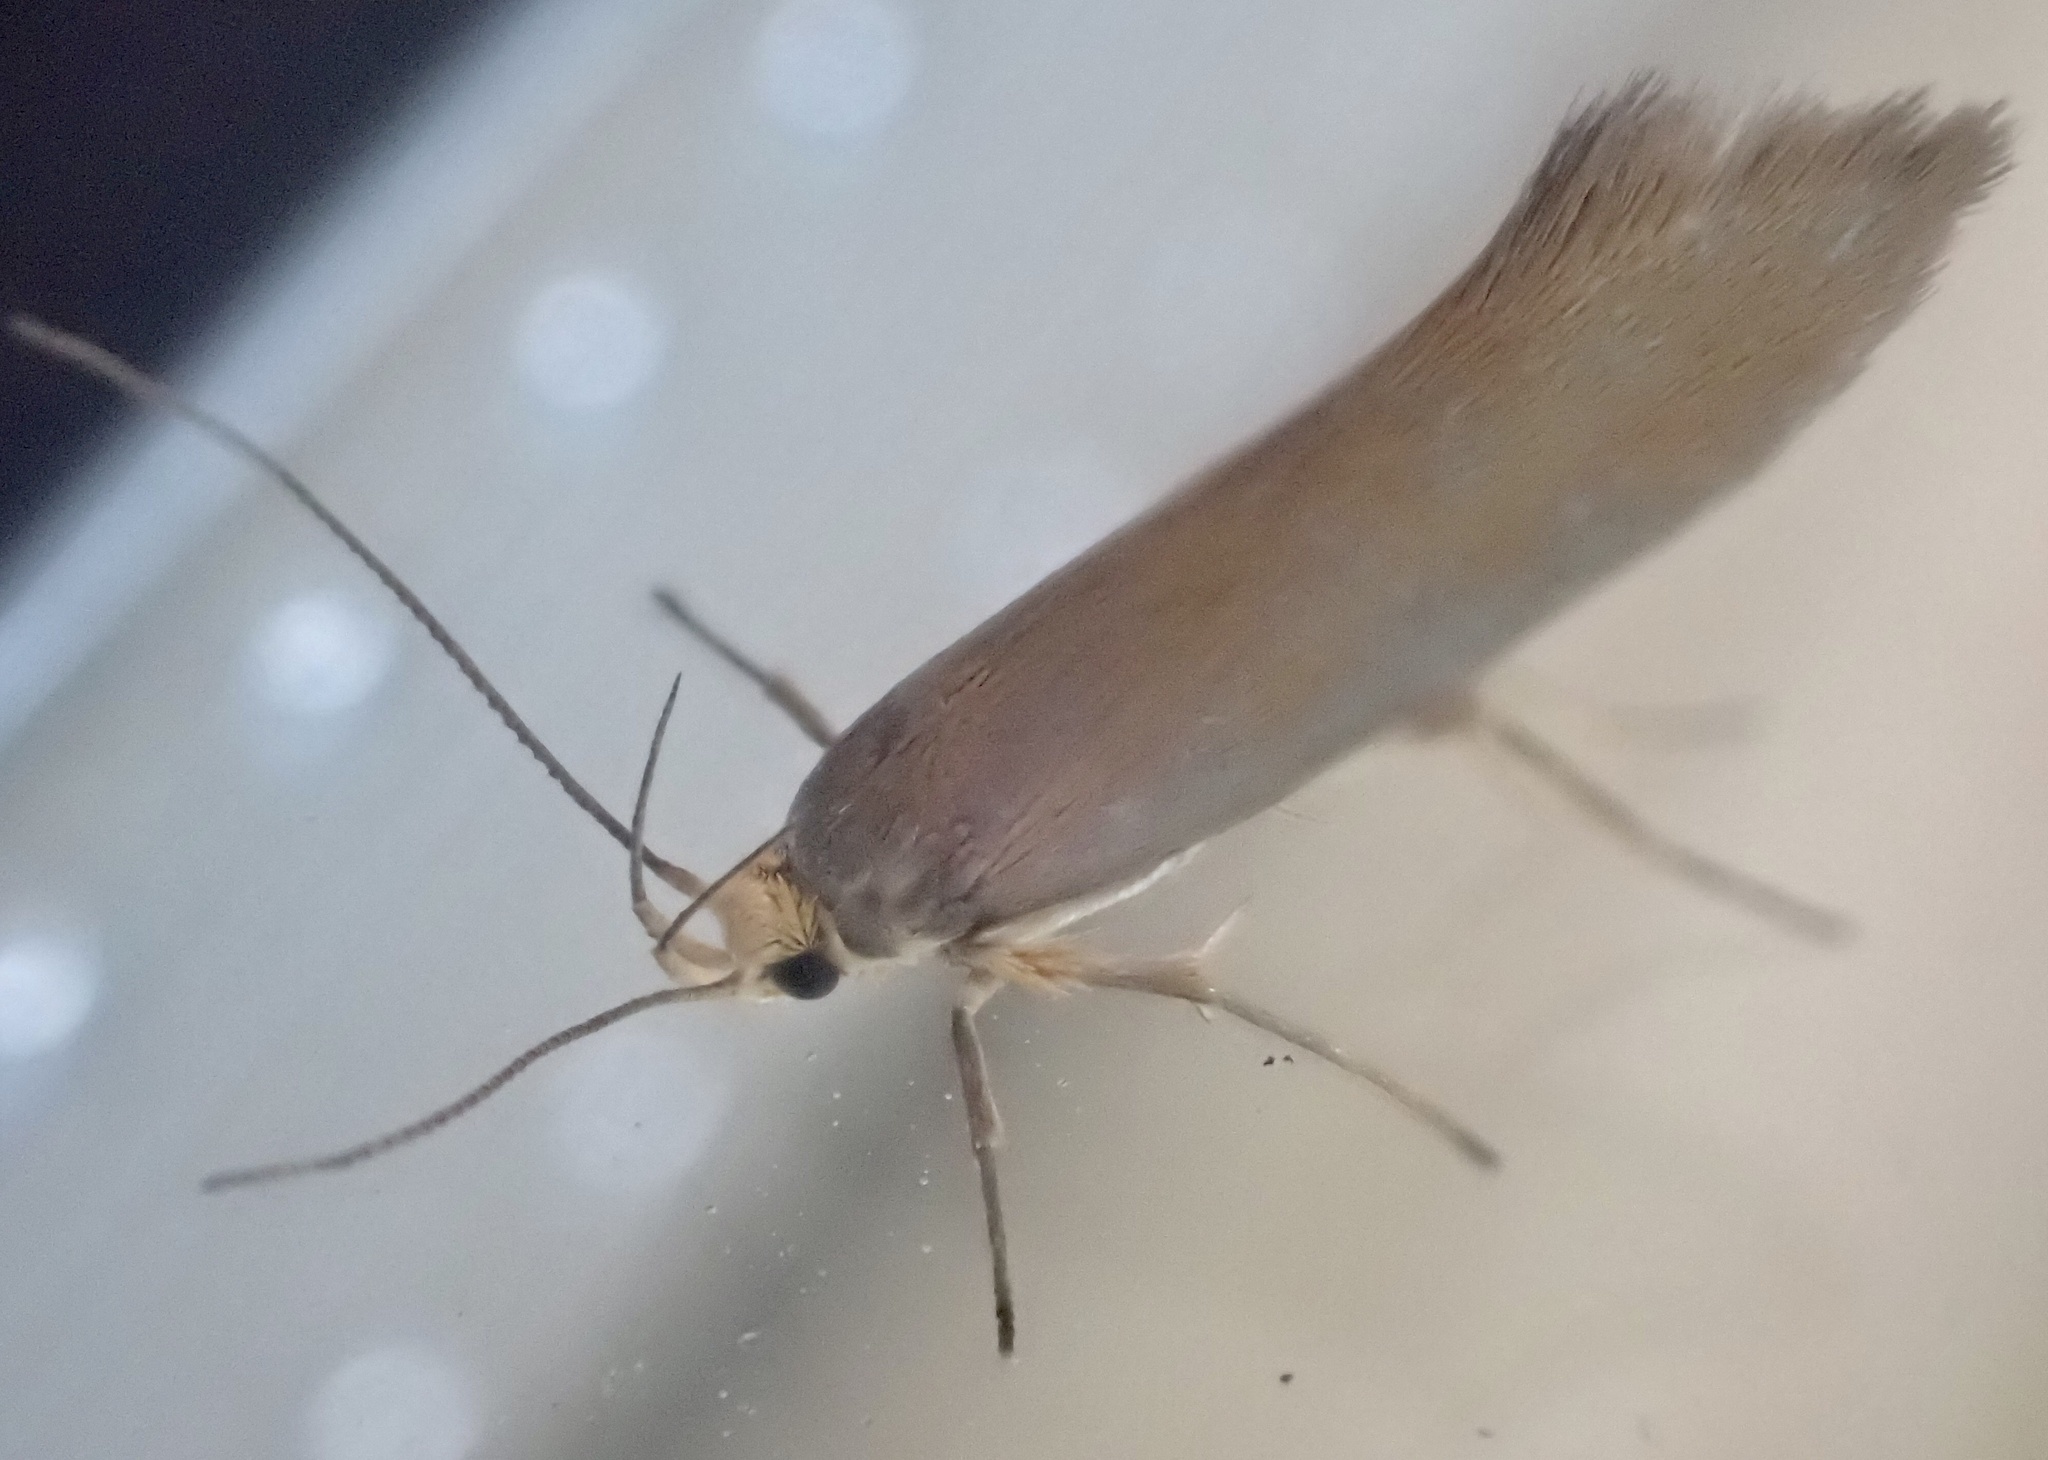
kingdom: Animalia
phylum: Arthropoda
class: Insecta
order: Lepidoptera
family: Oecophoridae
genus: Borkhausenia
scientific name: Borkhausenia Crassa unitella
